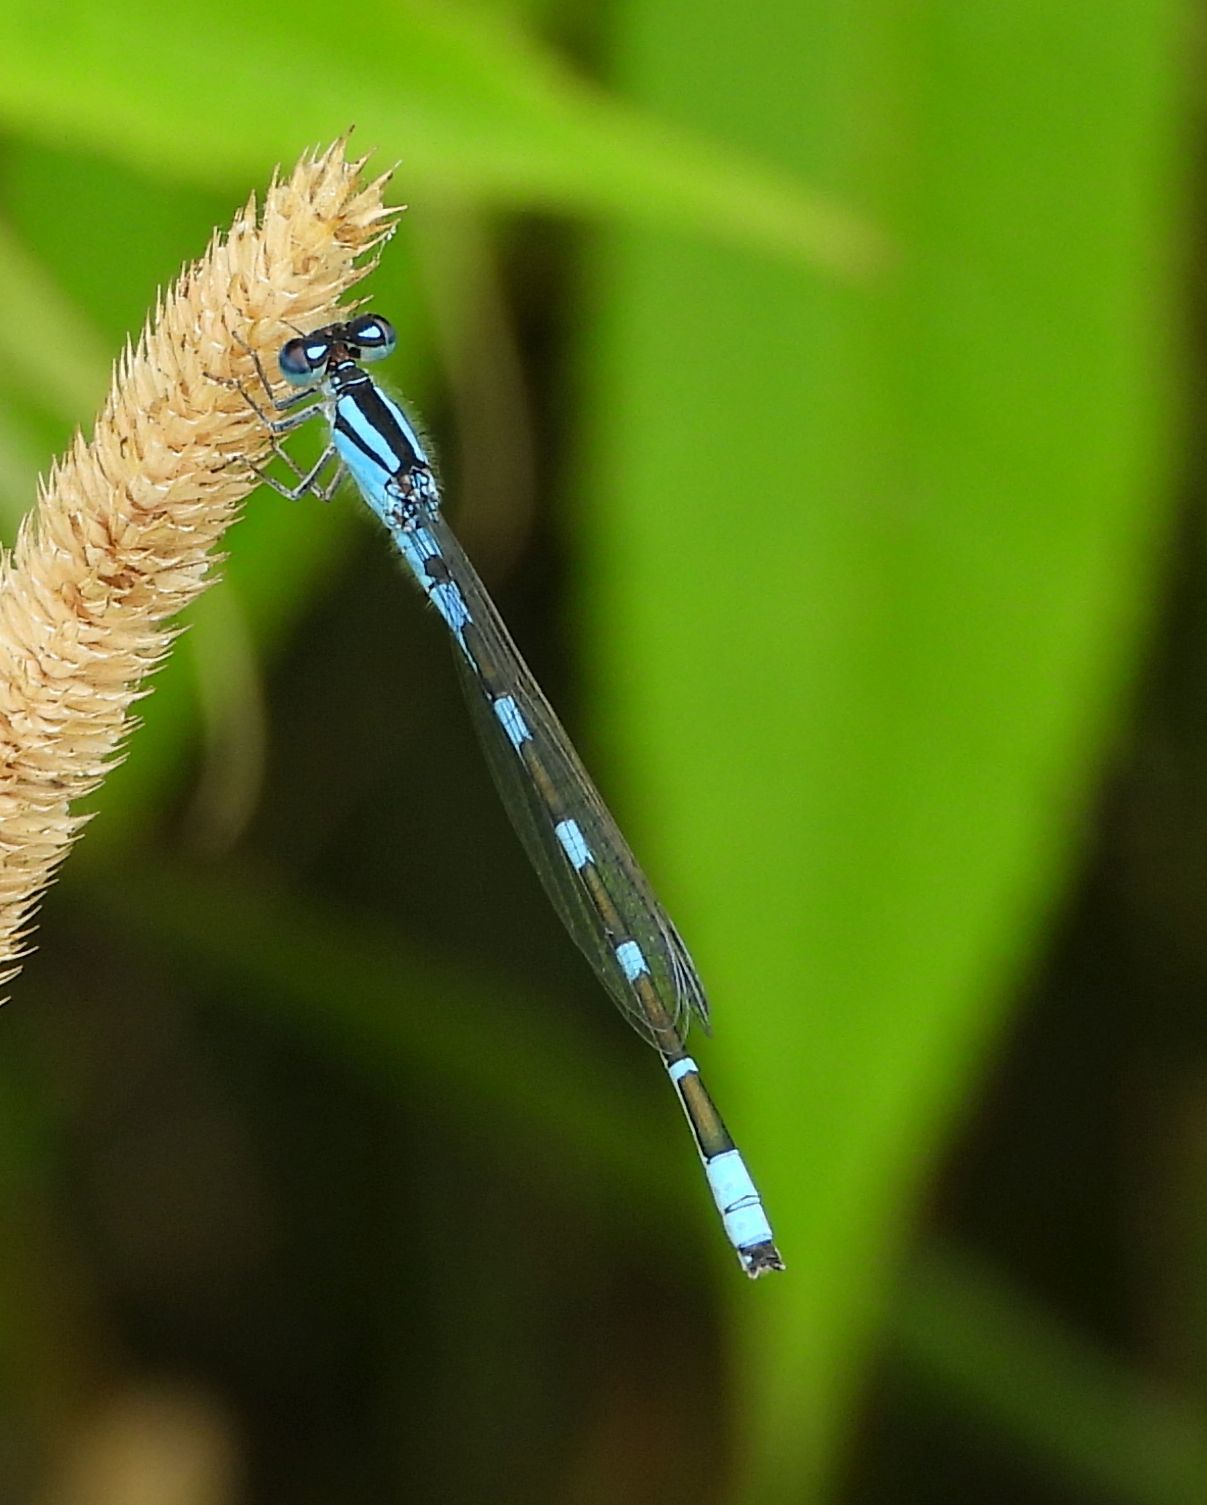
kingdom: Animalia
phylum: Arthropoda
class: Insecta
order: Odonata
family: Coenagrionidae
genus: Enallagma
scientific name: Enallagma carunculatum
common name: Tule bluet
